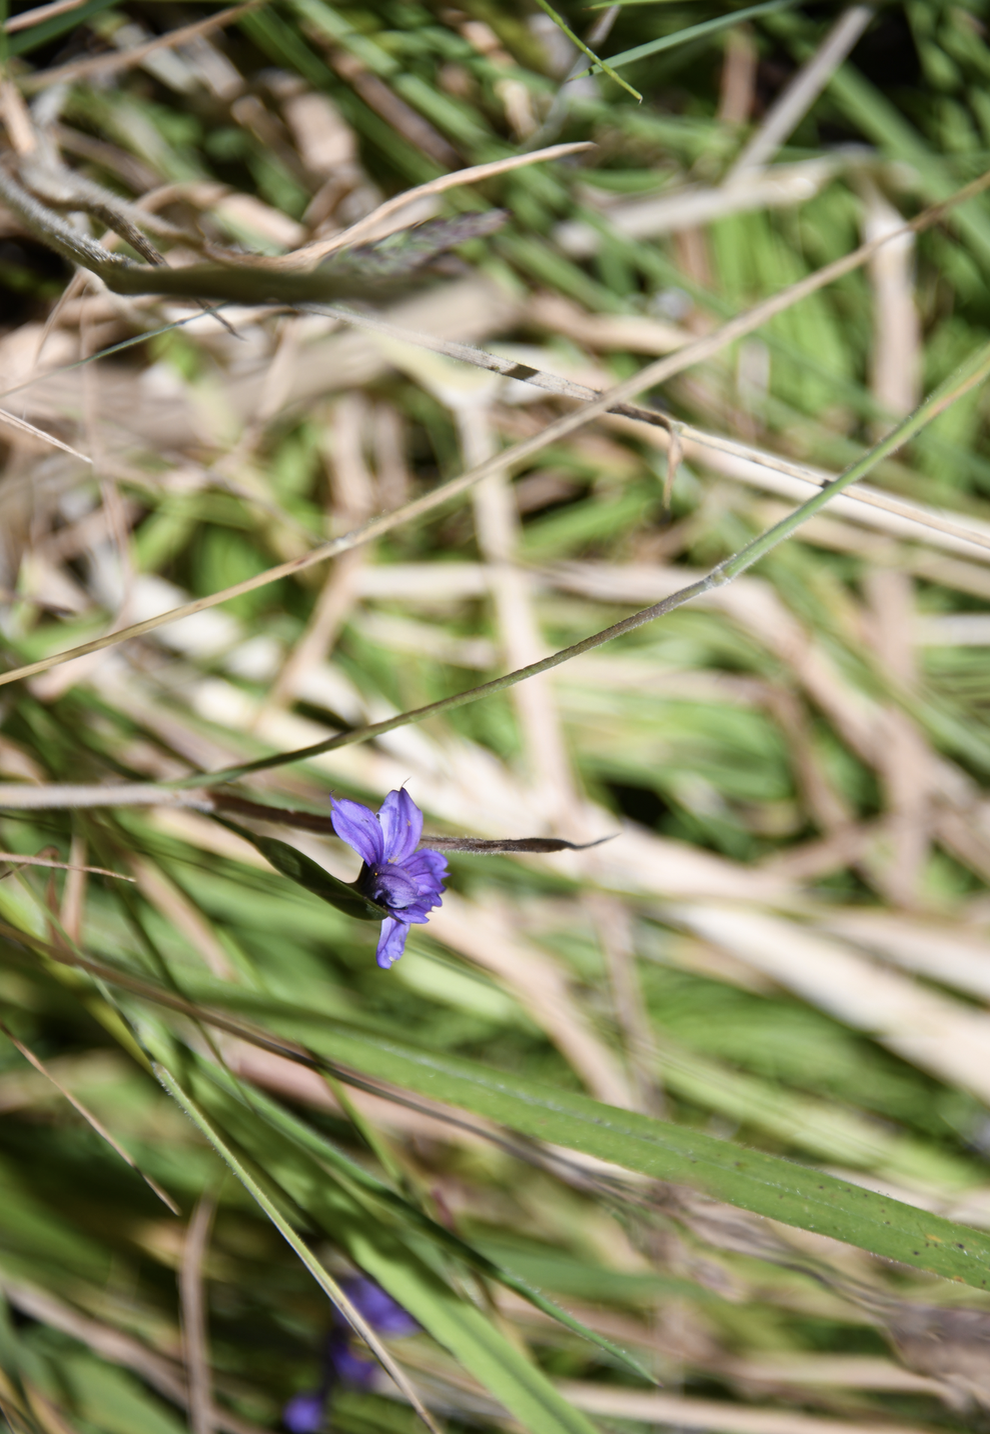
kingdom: Plantae
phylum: Tracheophyta
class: Liliopsida
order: Asparagales
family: Iridaceae
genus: Sisyrinchium
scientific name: Sisyrinchium bellum
